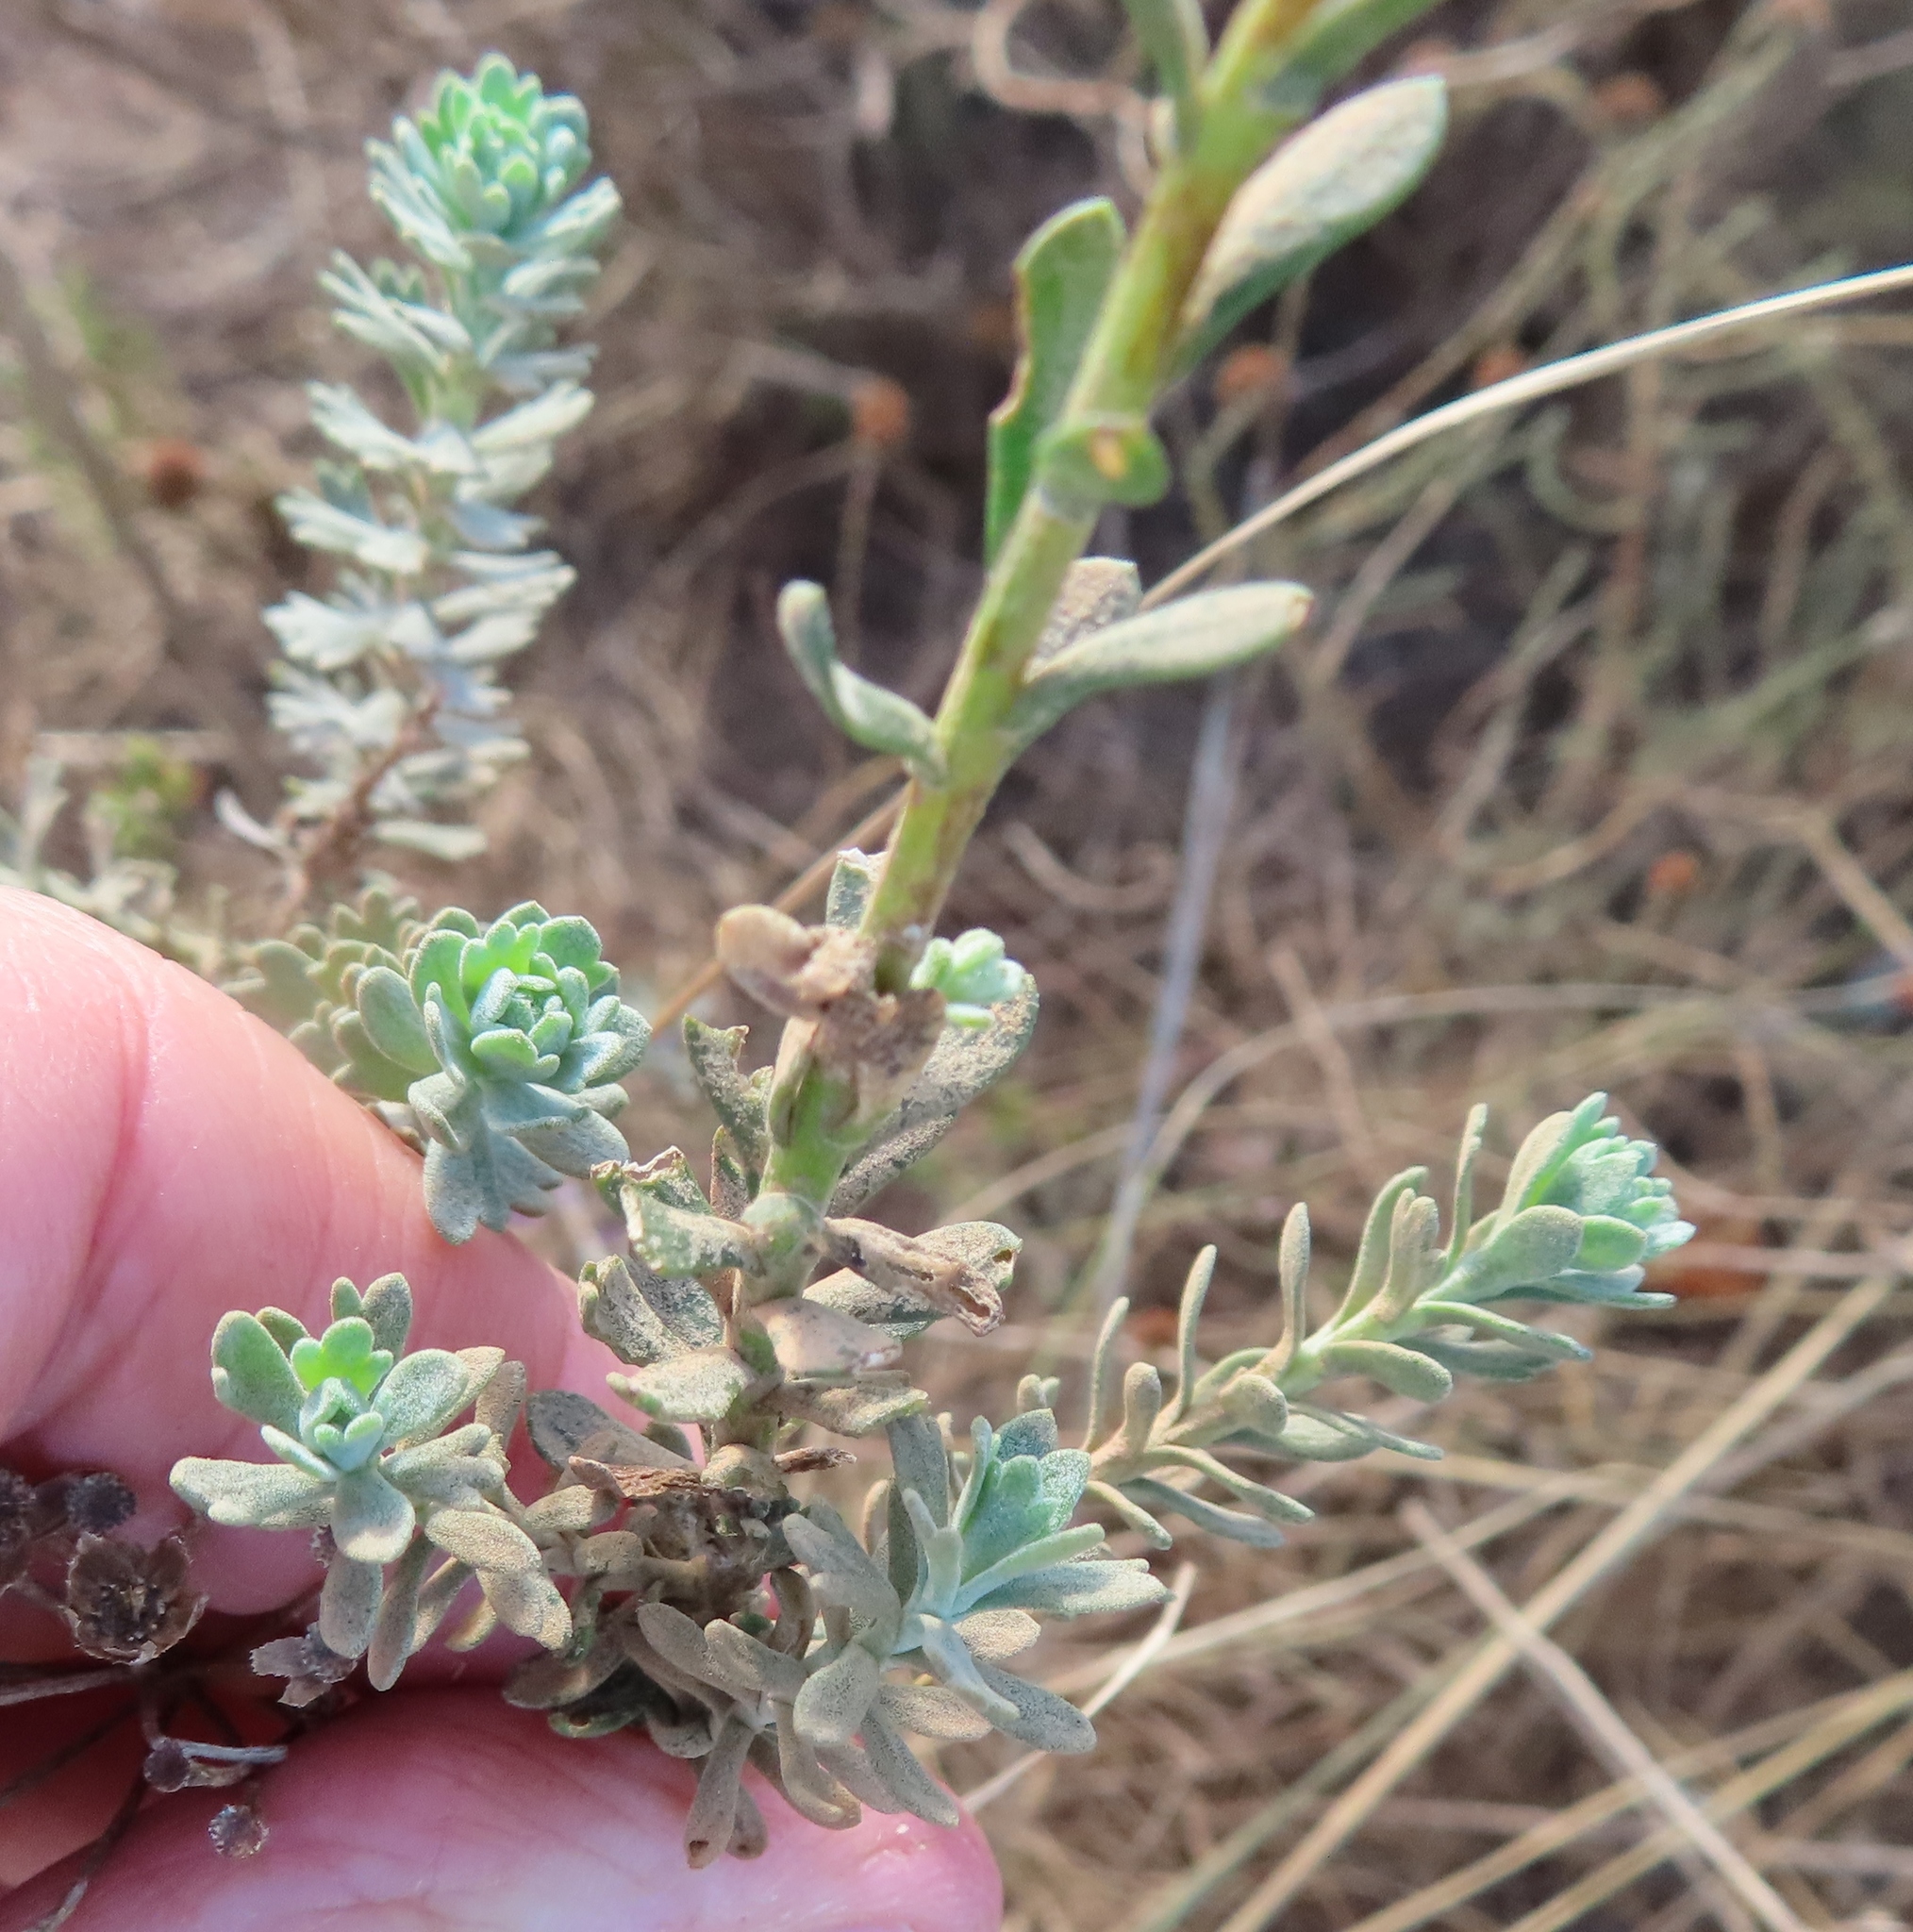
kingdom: Plantae
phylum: Tracheophyta
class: Magnoliopsida
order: Asterales
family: Asteraceae
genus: Athanasia
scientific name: Athanasia trifurcata
